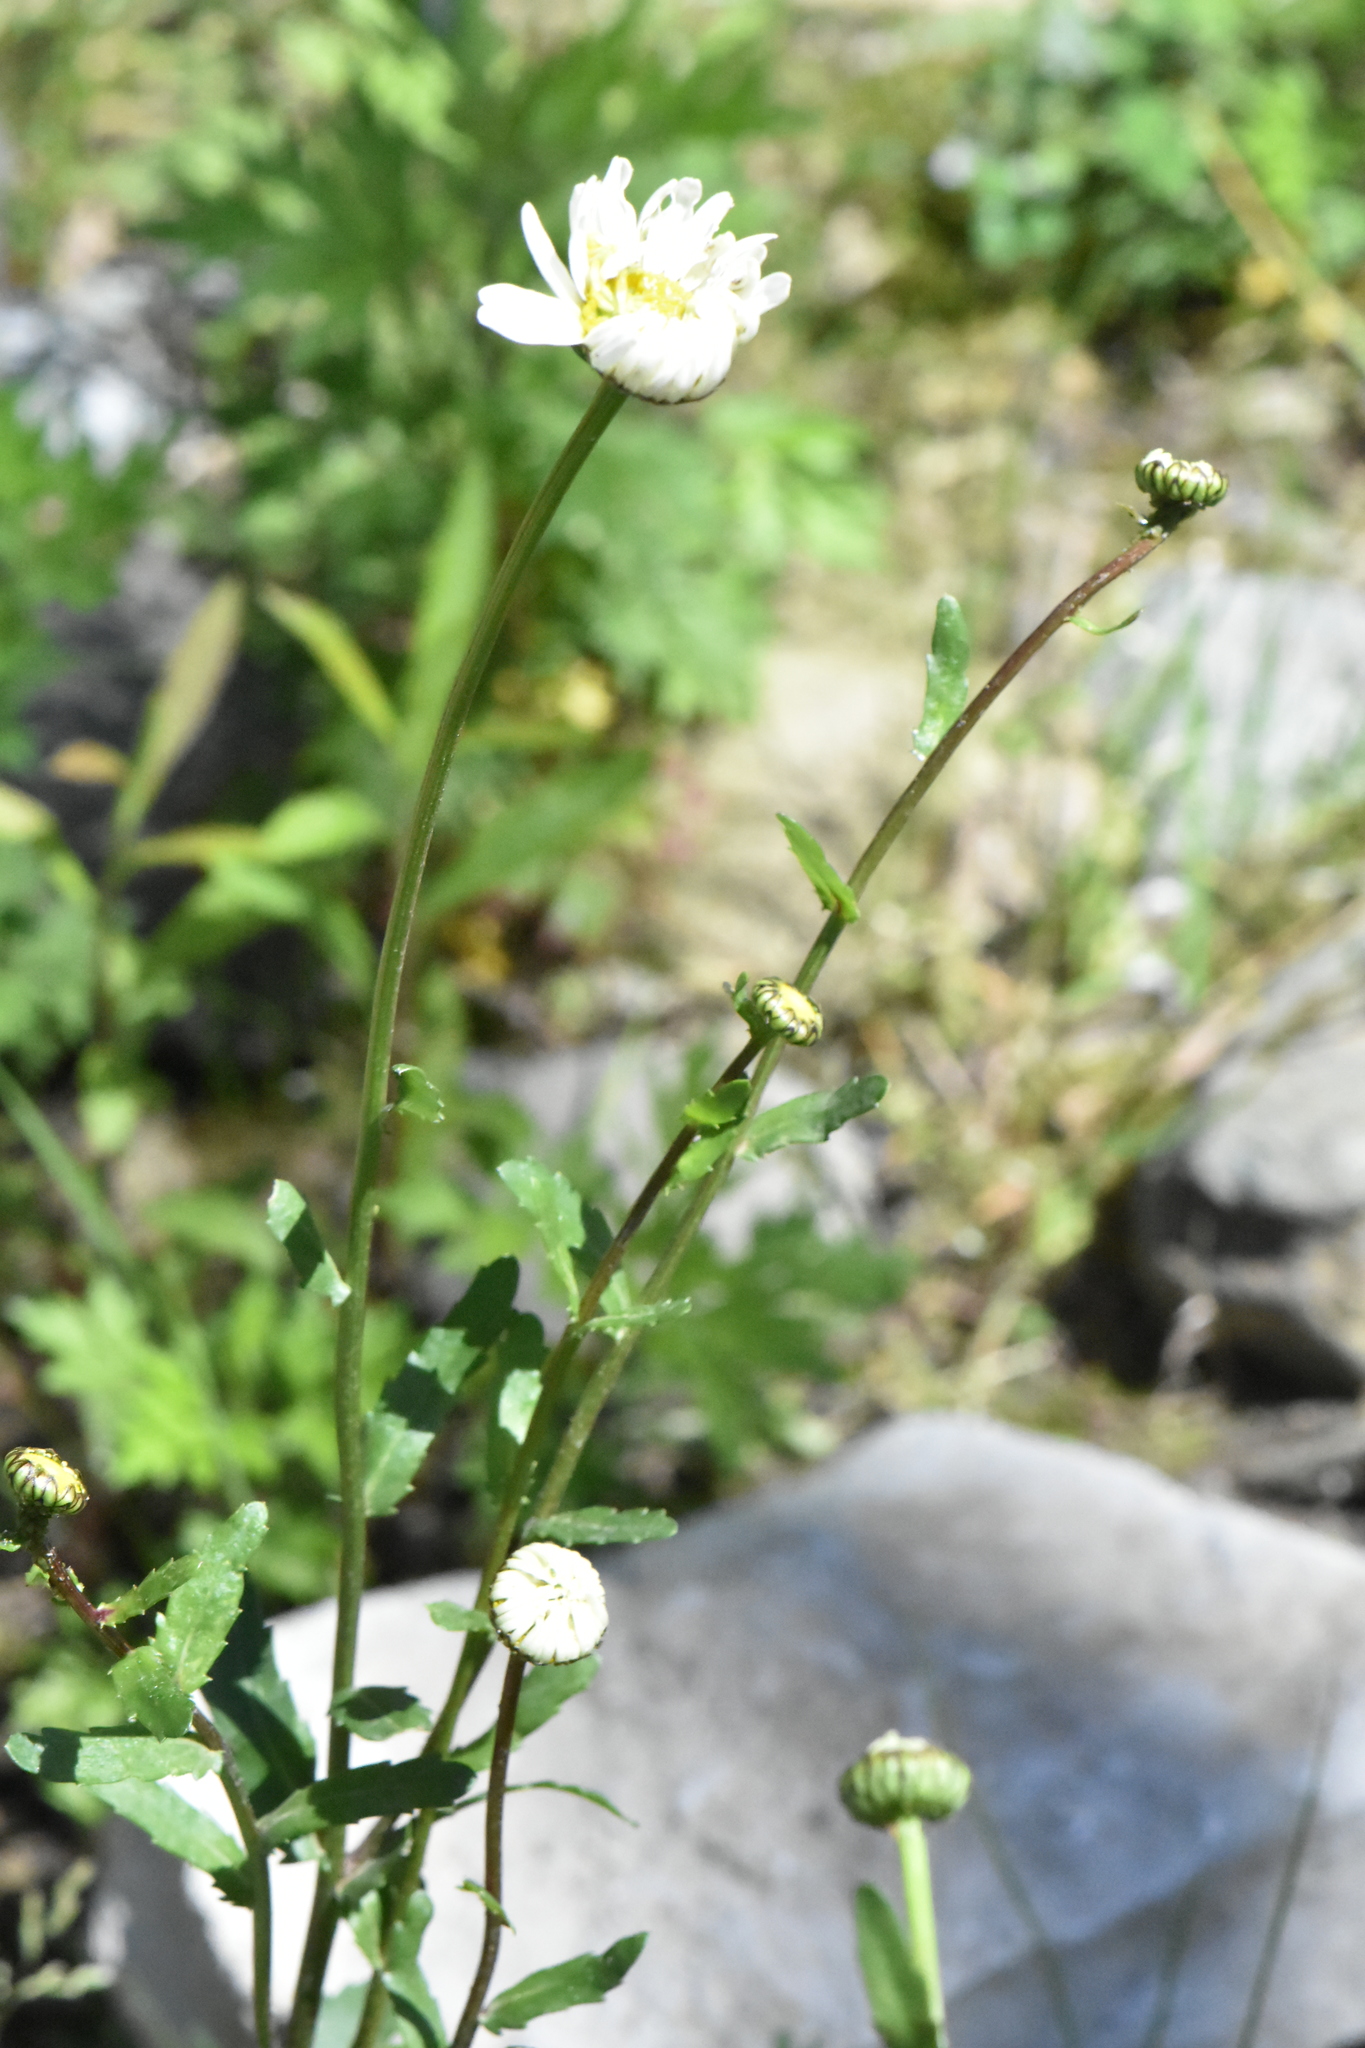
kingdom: Plantae
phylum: Tracheophyta
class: Magnoliopsida
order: Asterales
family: Asteraceae
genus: Leucanthemum
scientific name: Leucanthemum vulgare
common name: Oxeye daisy
